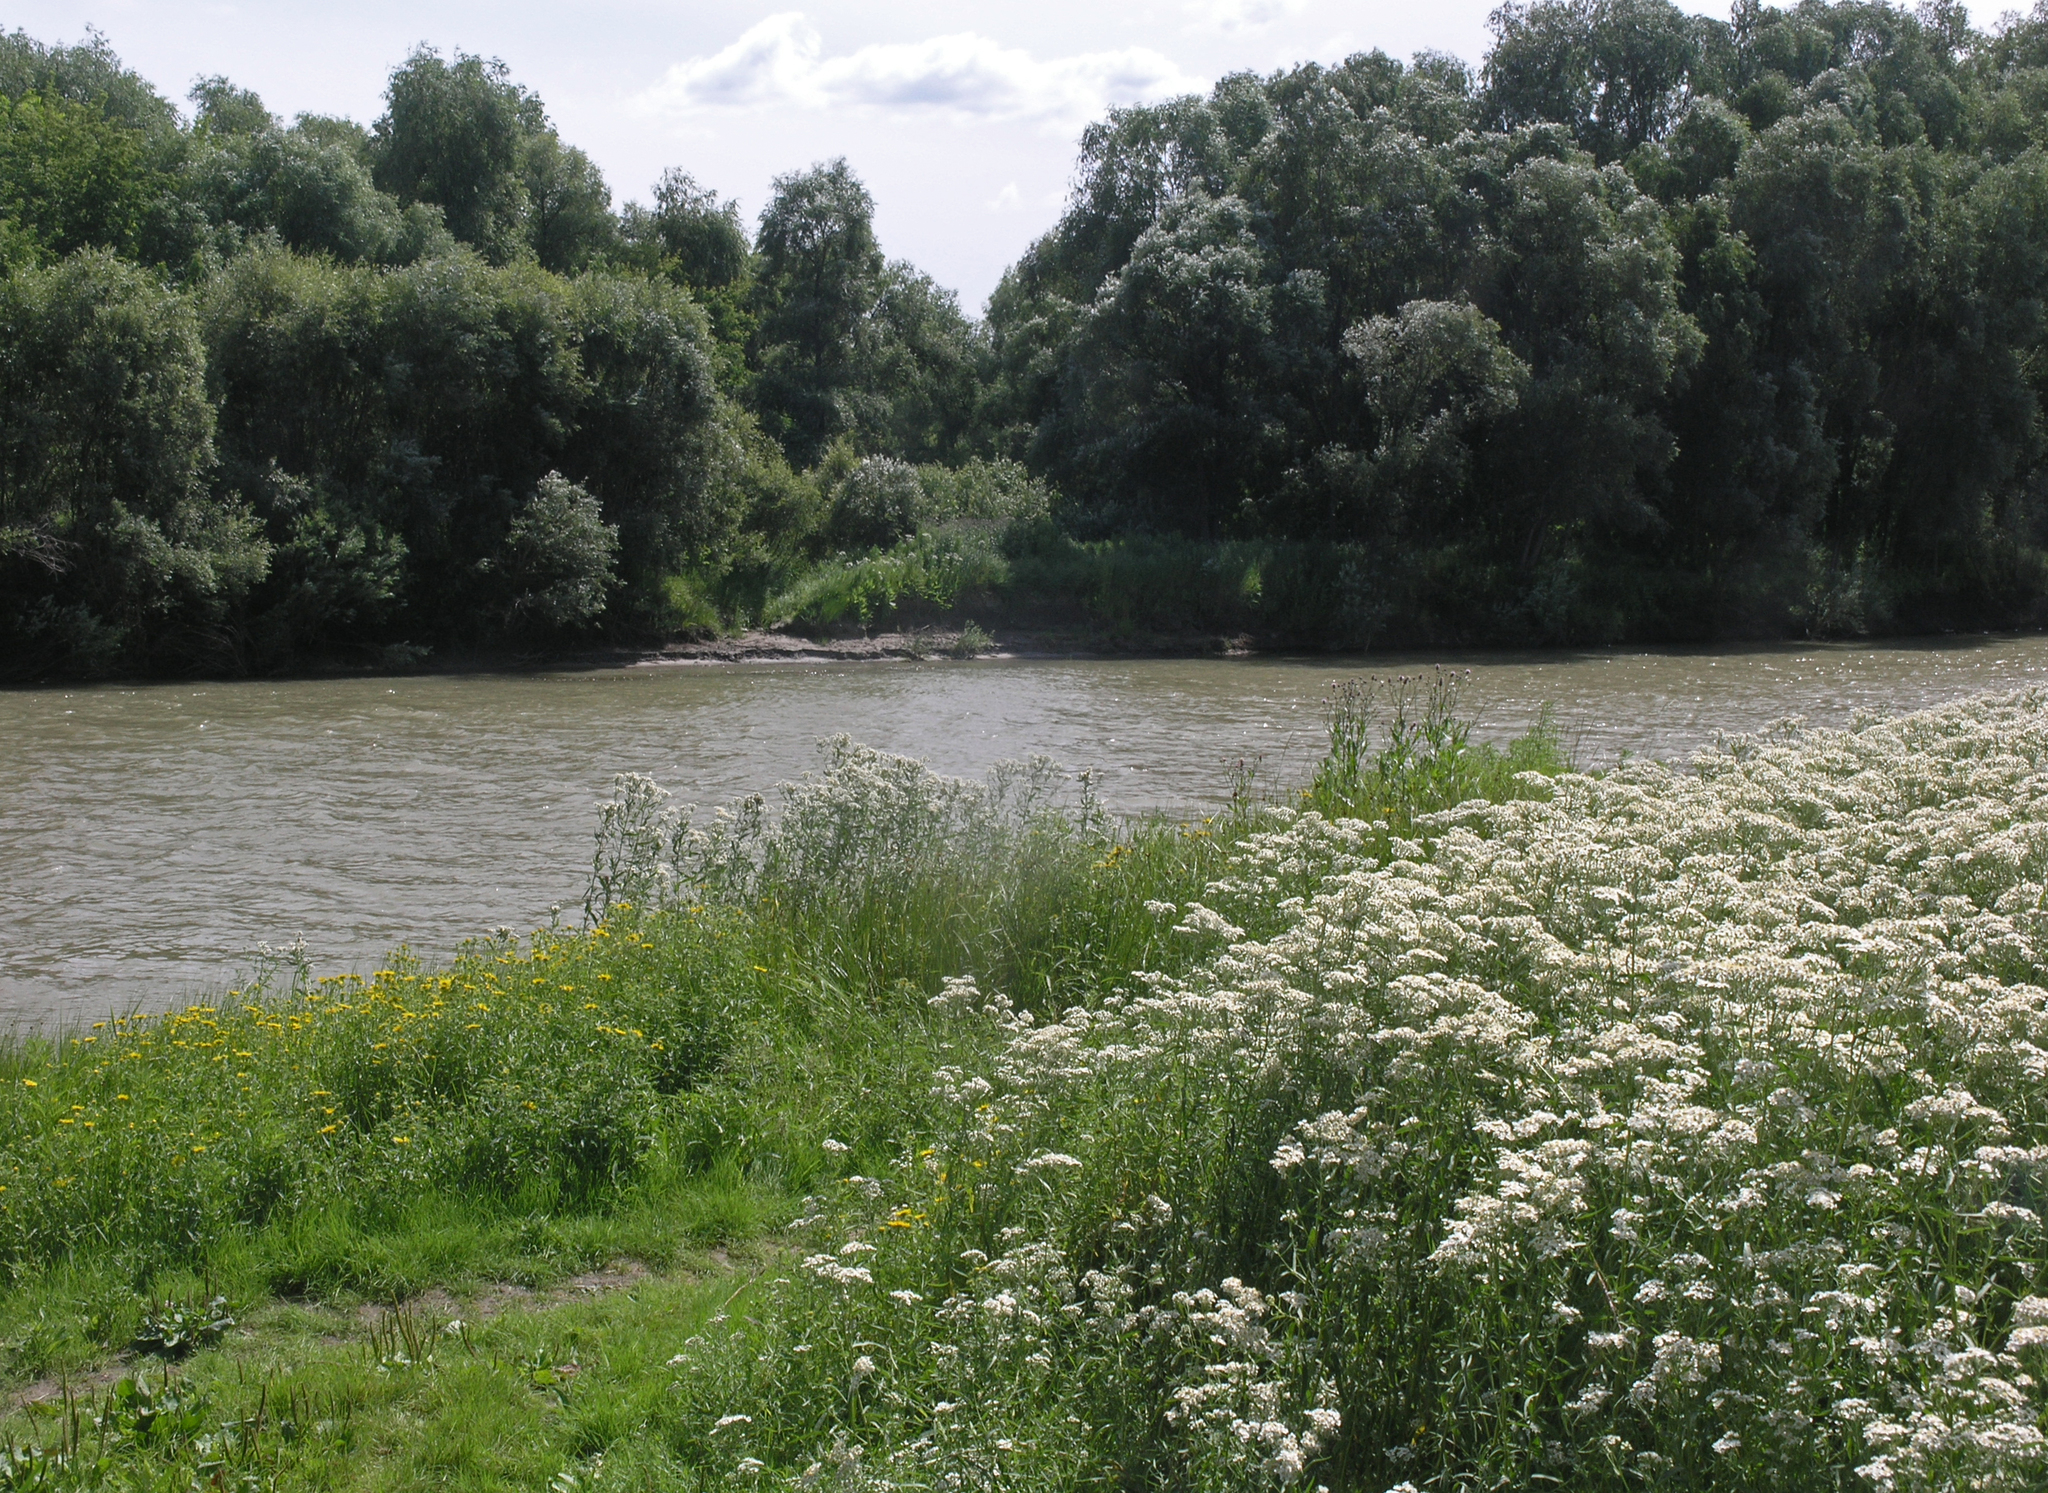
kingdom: Plantae
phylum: Tracheophyta
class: Magnoliopsida
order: Asterales
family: Asteraceae
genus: Achillea
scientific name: Achillea salicifolia
